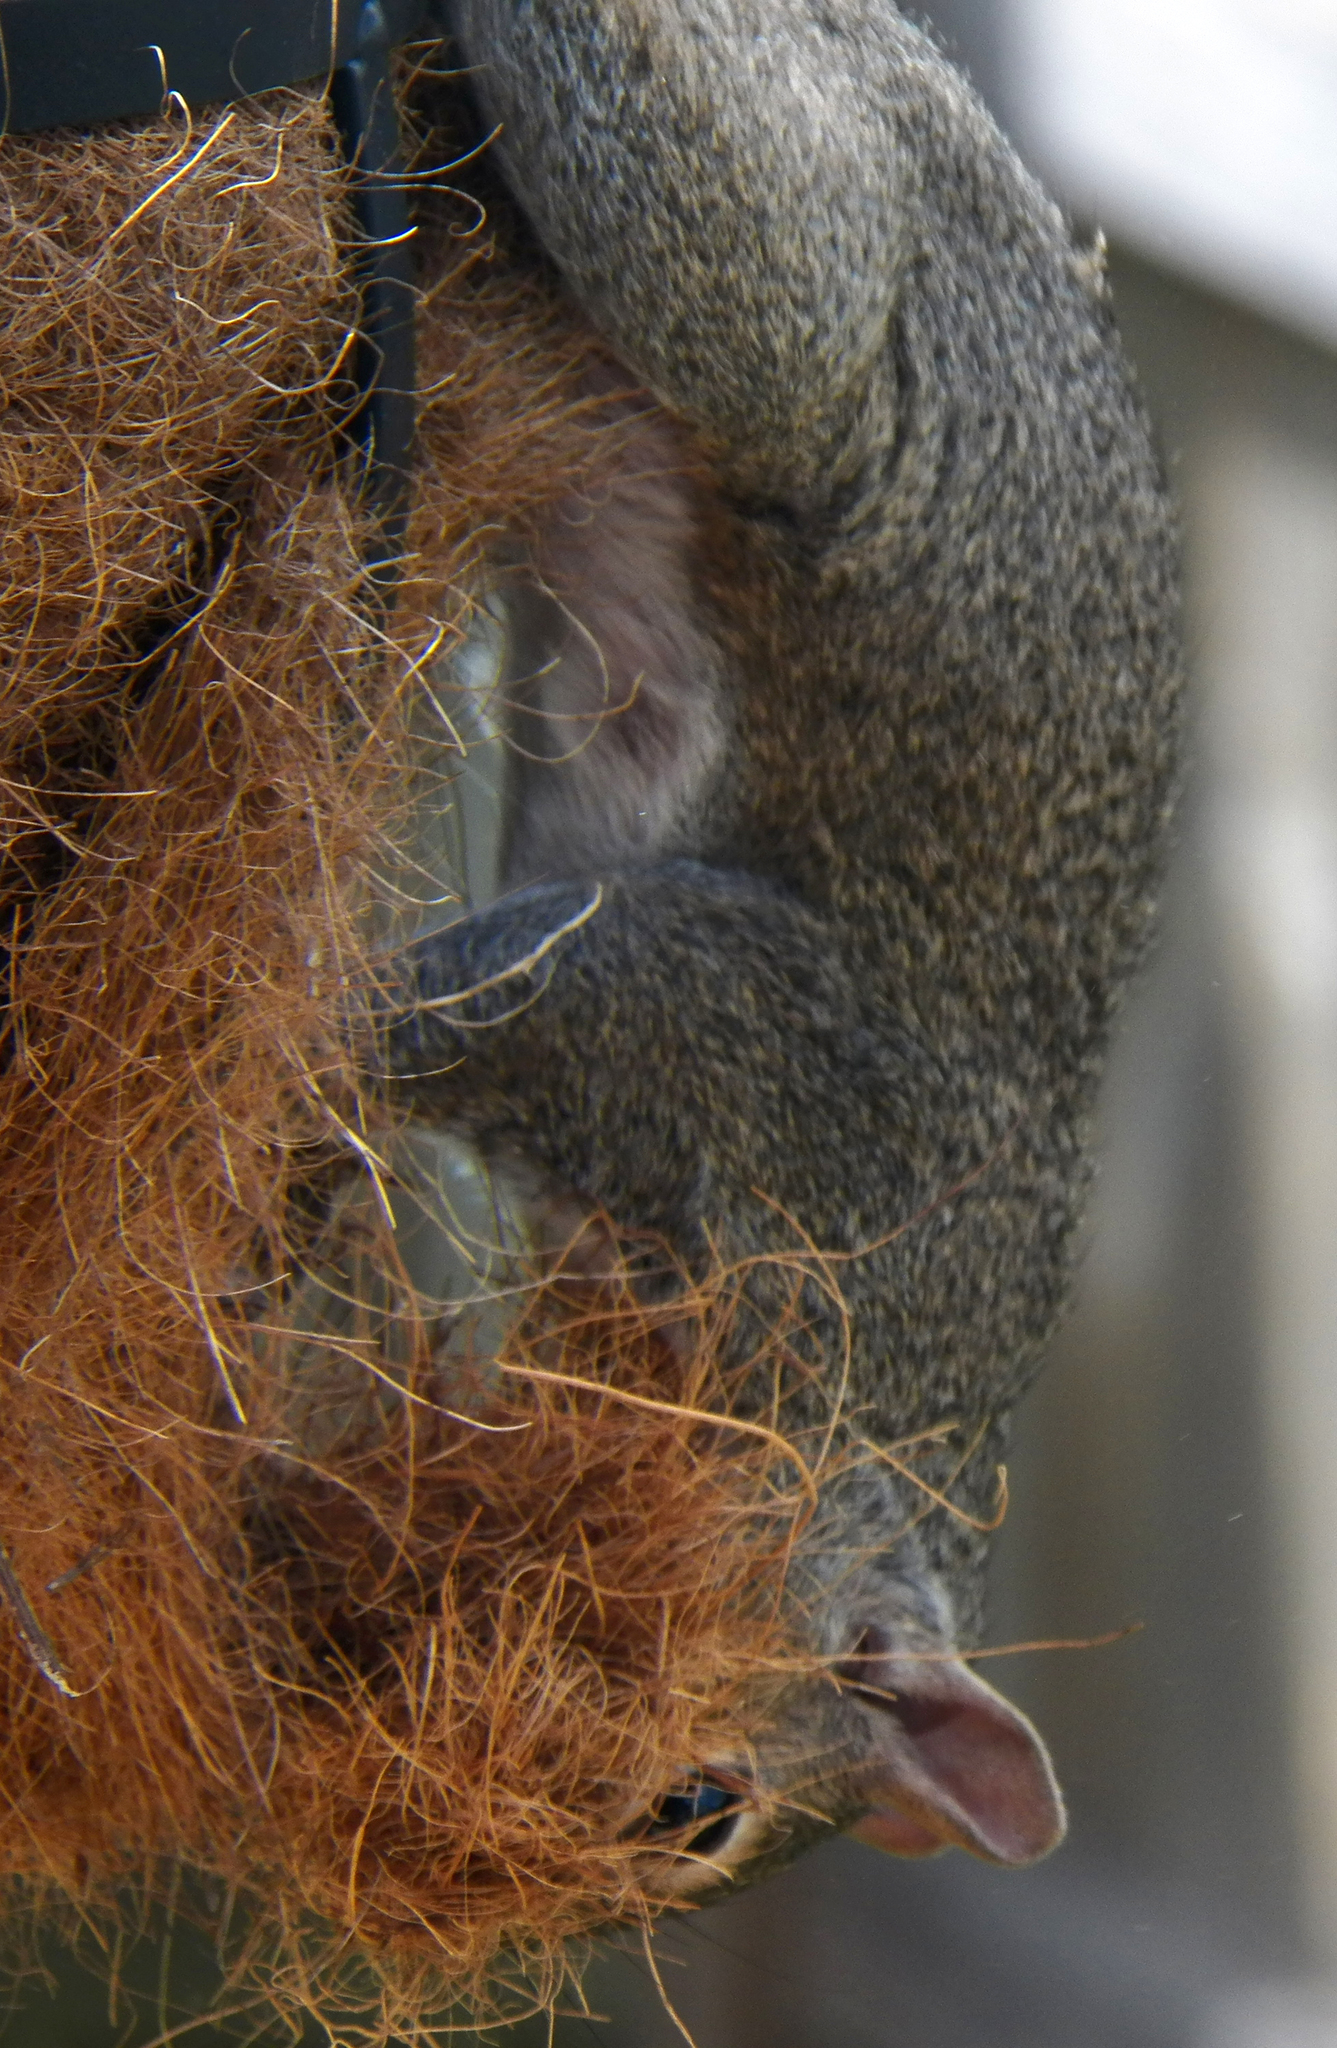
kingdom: Animalia
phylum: Chordata
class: Mammalia
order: Rodentia
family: Sciuridae
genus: Sciurus
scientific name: Sciurus carolinensis
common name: Eastern gray squirrel
